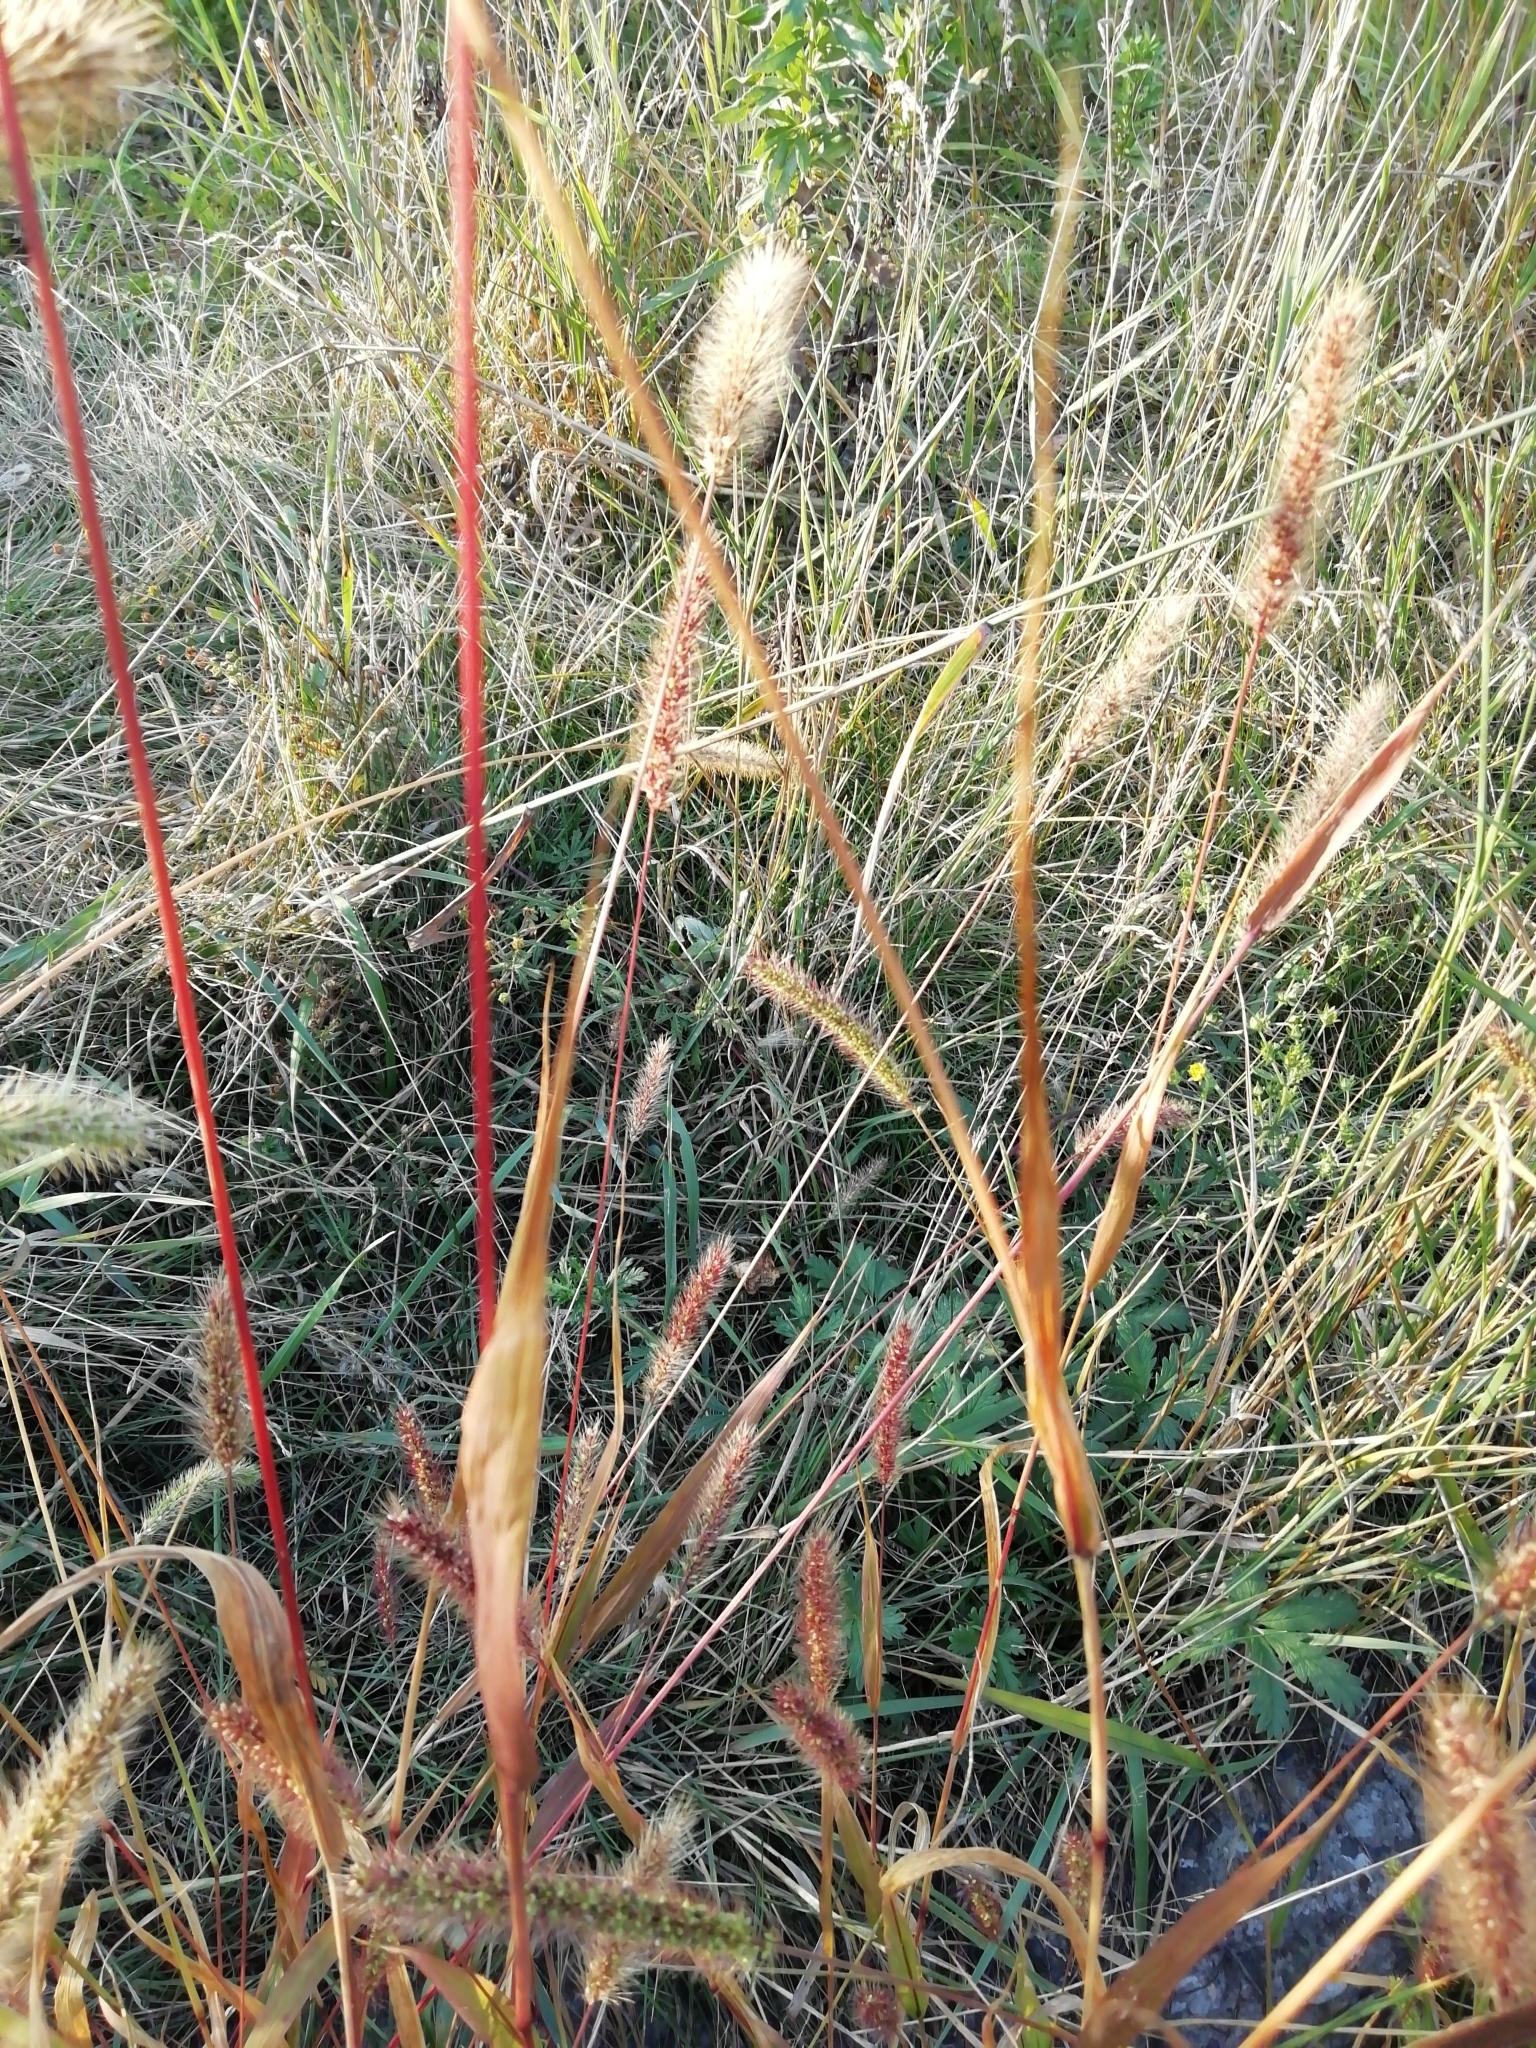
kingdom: Plantae
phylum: Tracheophyta
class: Liliopsida
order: Poales
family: Poaceae
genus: Setaria
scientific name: Setaria viridis
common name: Green bristlegrass
